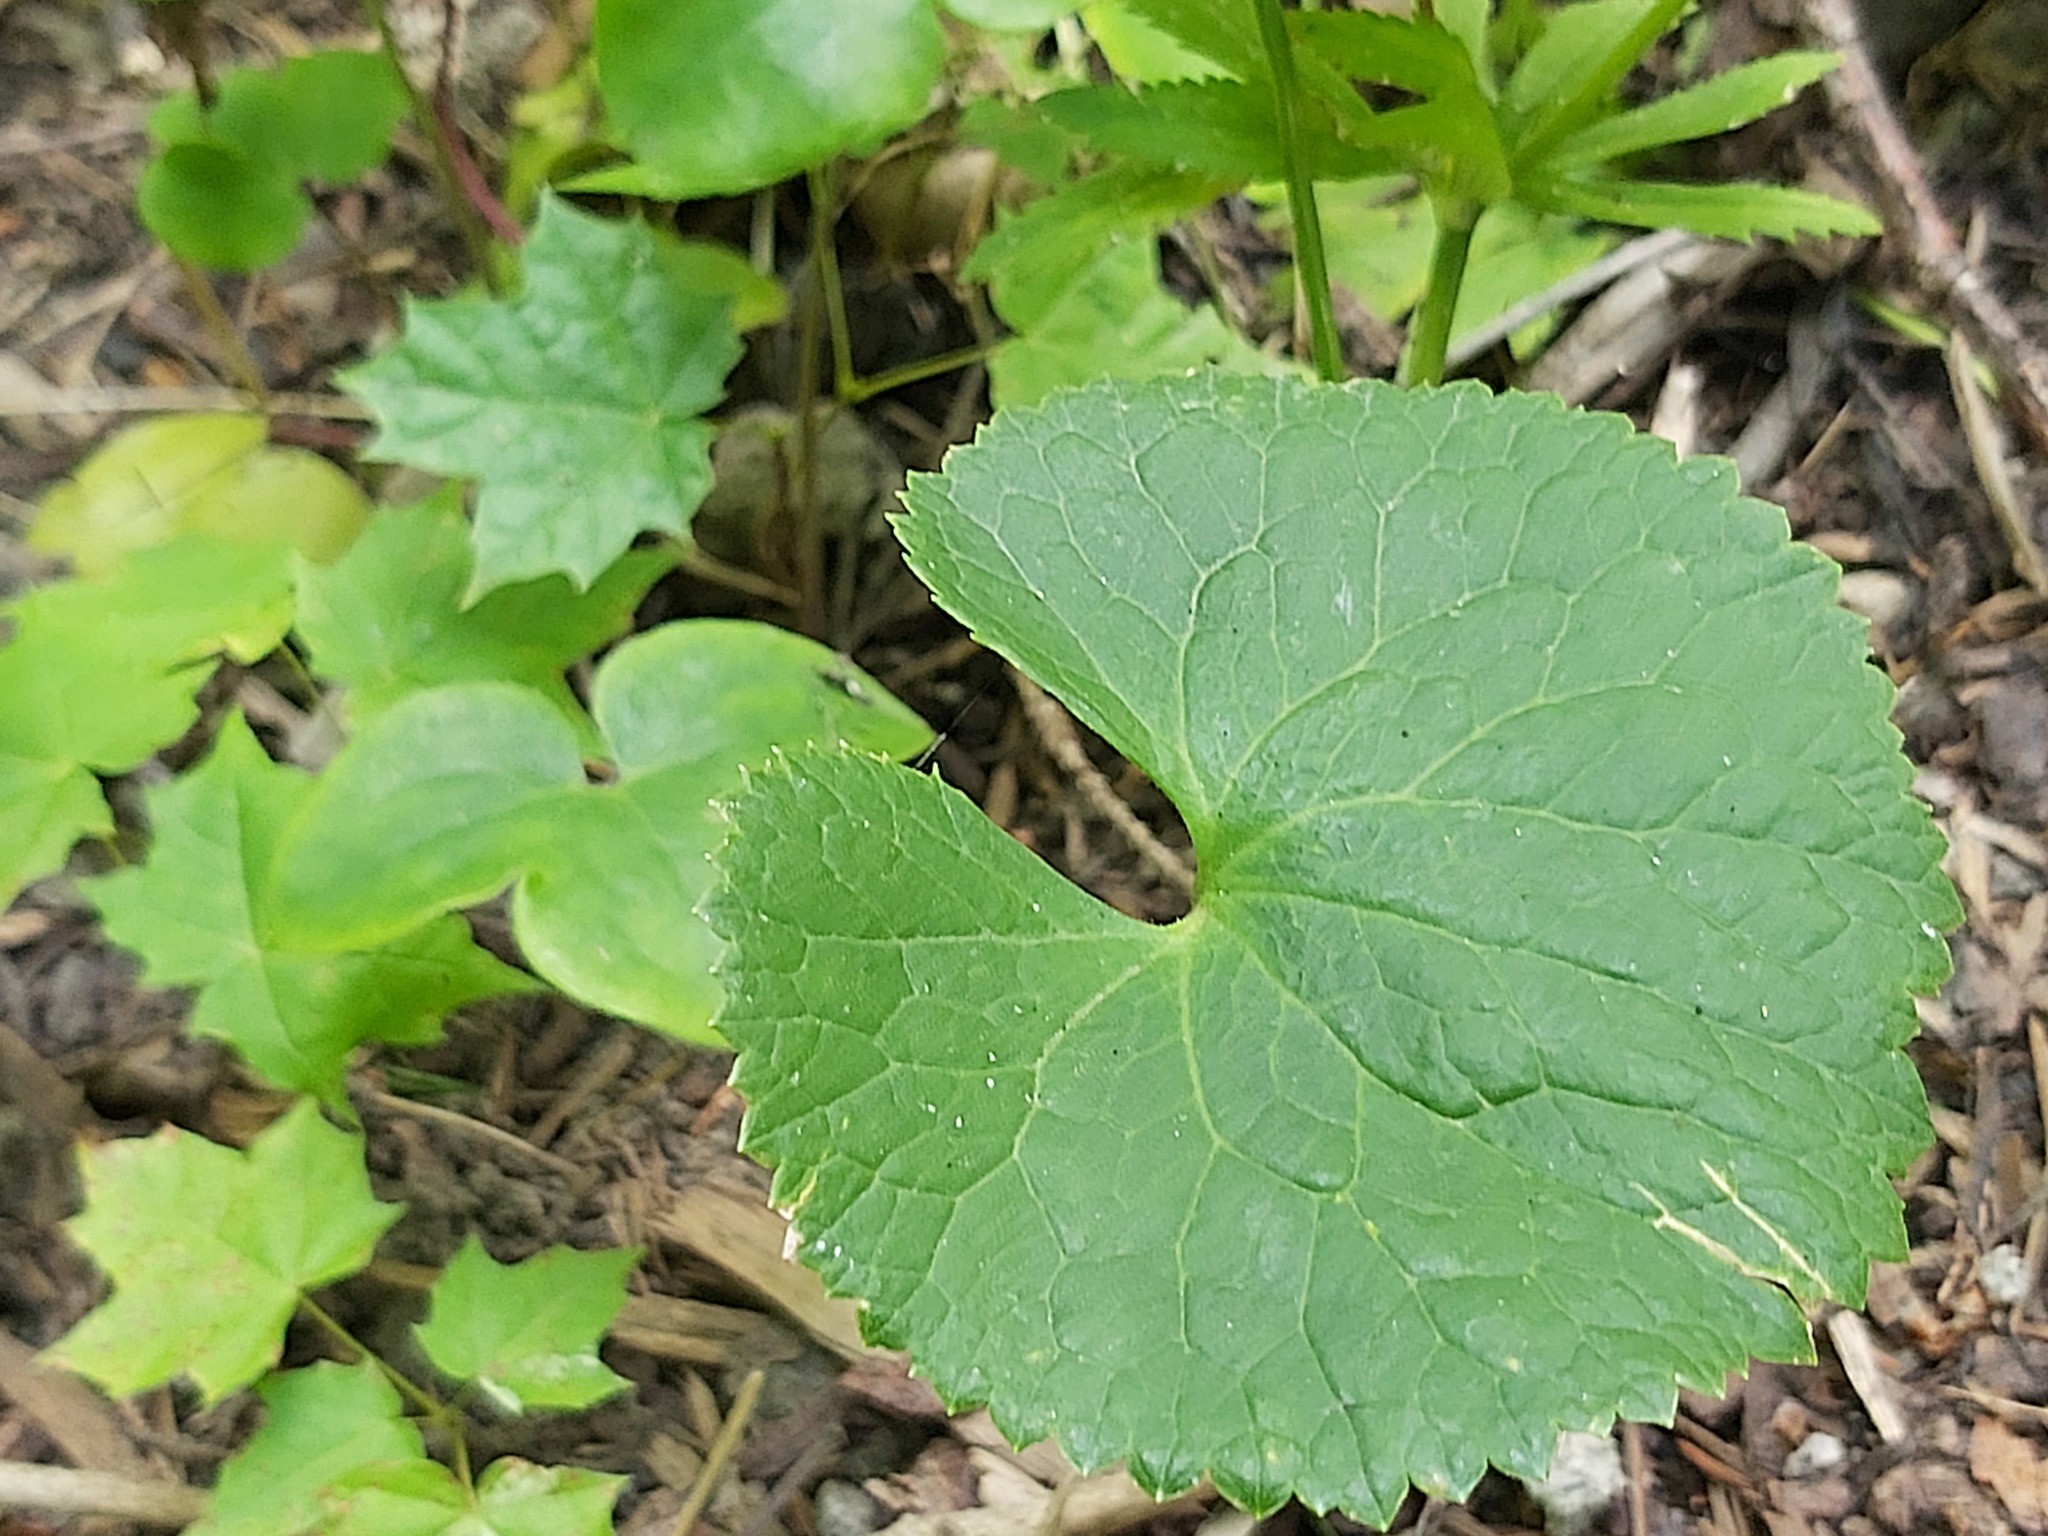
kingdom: Plantae
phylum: Tracheophyta
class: Magnoliopsida
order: Ranunculales
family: Ranunculaceae
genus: Ranunculus
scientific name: Ranunculus cassubicus
